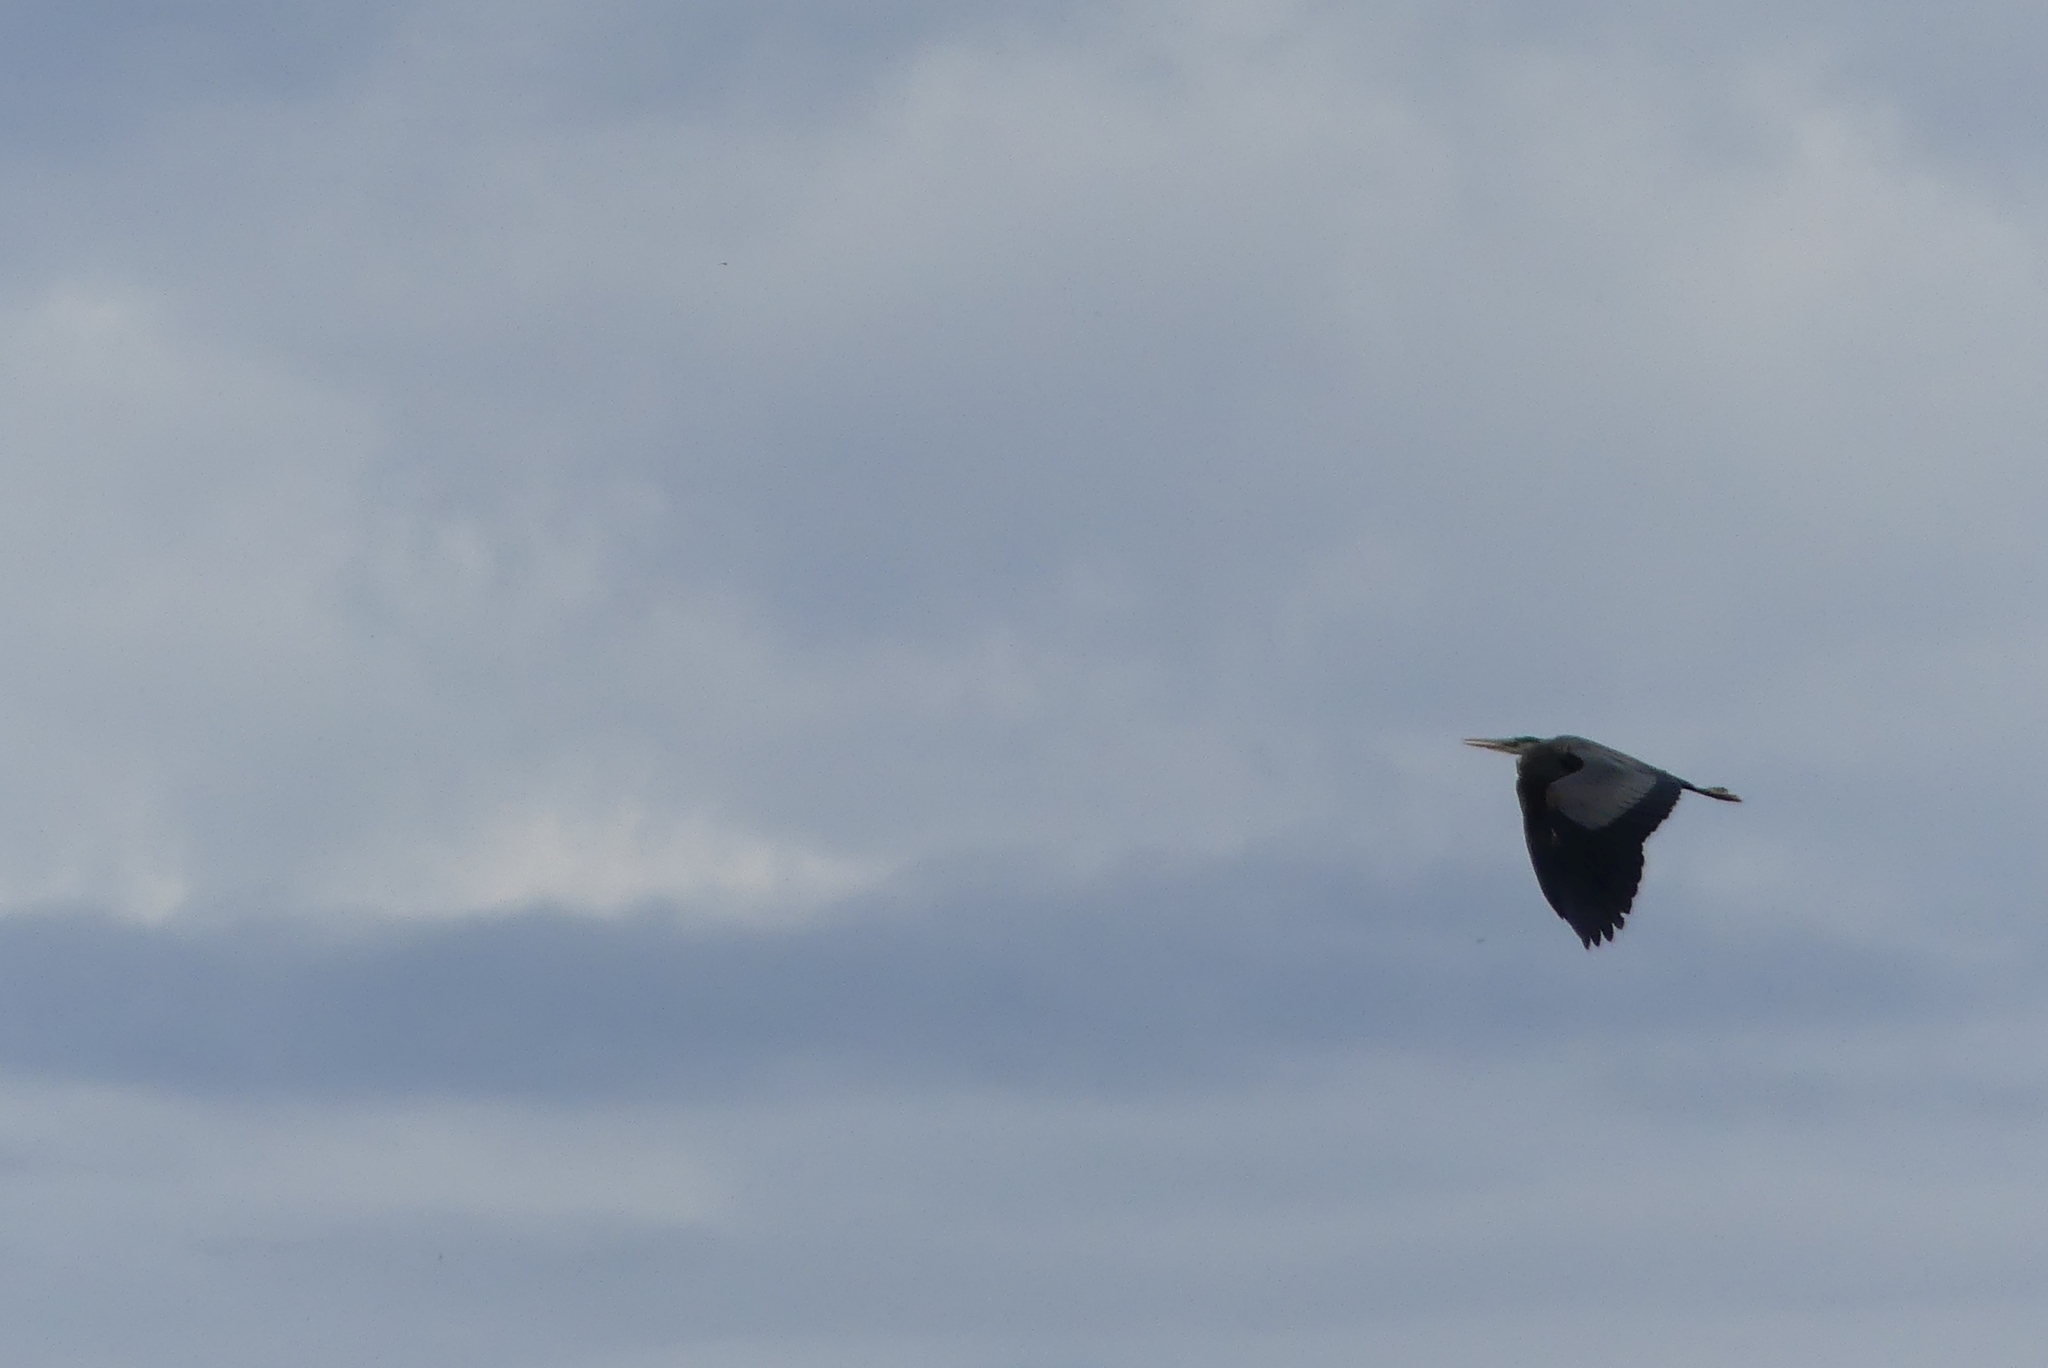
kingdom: Animalia
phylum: Chordata
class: Aves
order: Pelecaniformes
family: Ardeidae
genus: Ardea
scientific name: Ardea herodias
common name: Great blue heron
